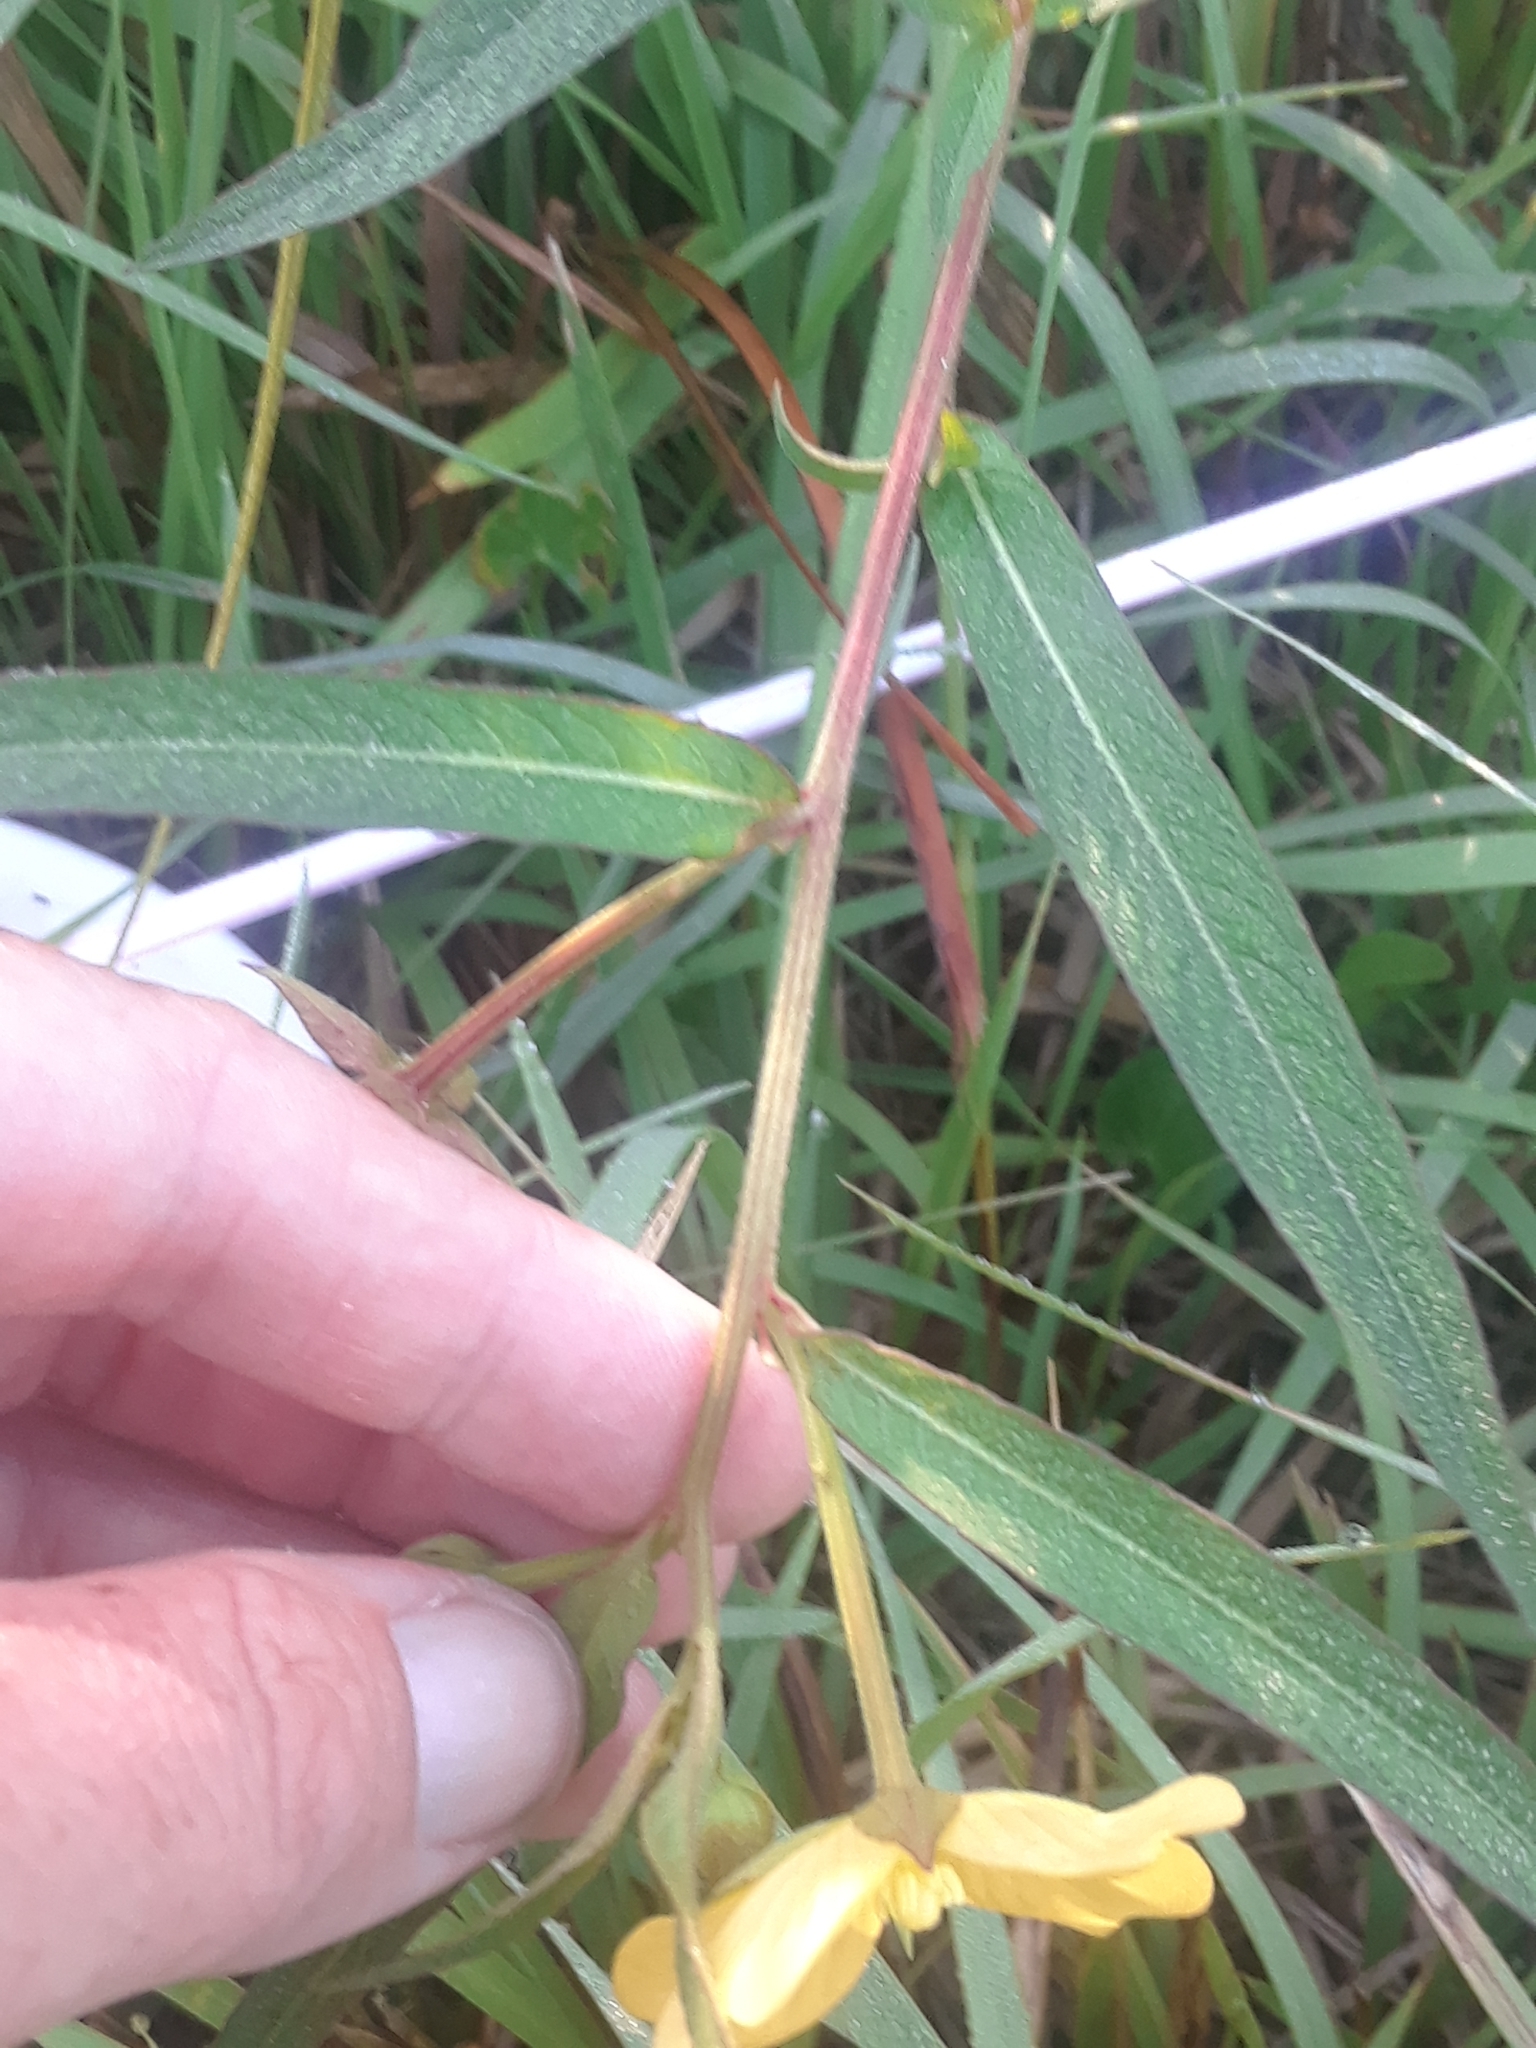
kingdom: Plantae
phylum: Tracheophyta
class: Magnoliopsida
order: Myrtales
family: Onagraceae
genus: Ludwigia
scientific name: Ludwigia octovalvis
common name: Water-primrose
